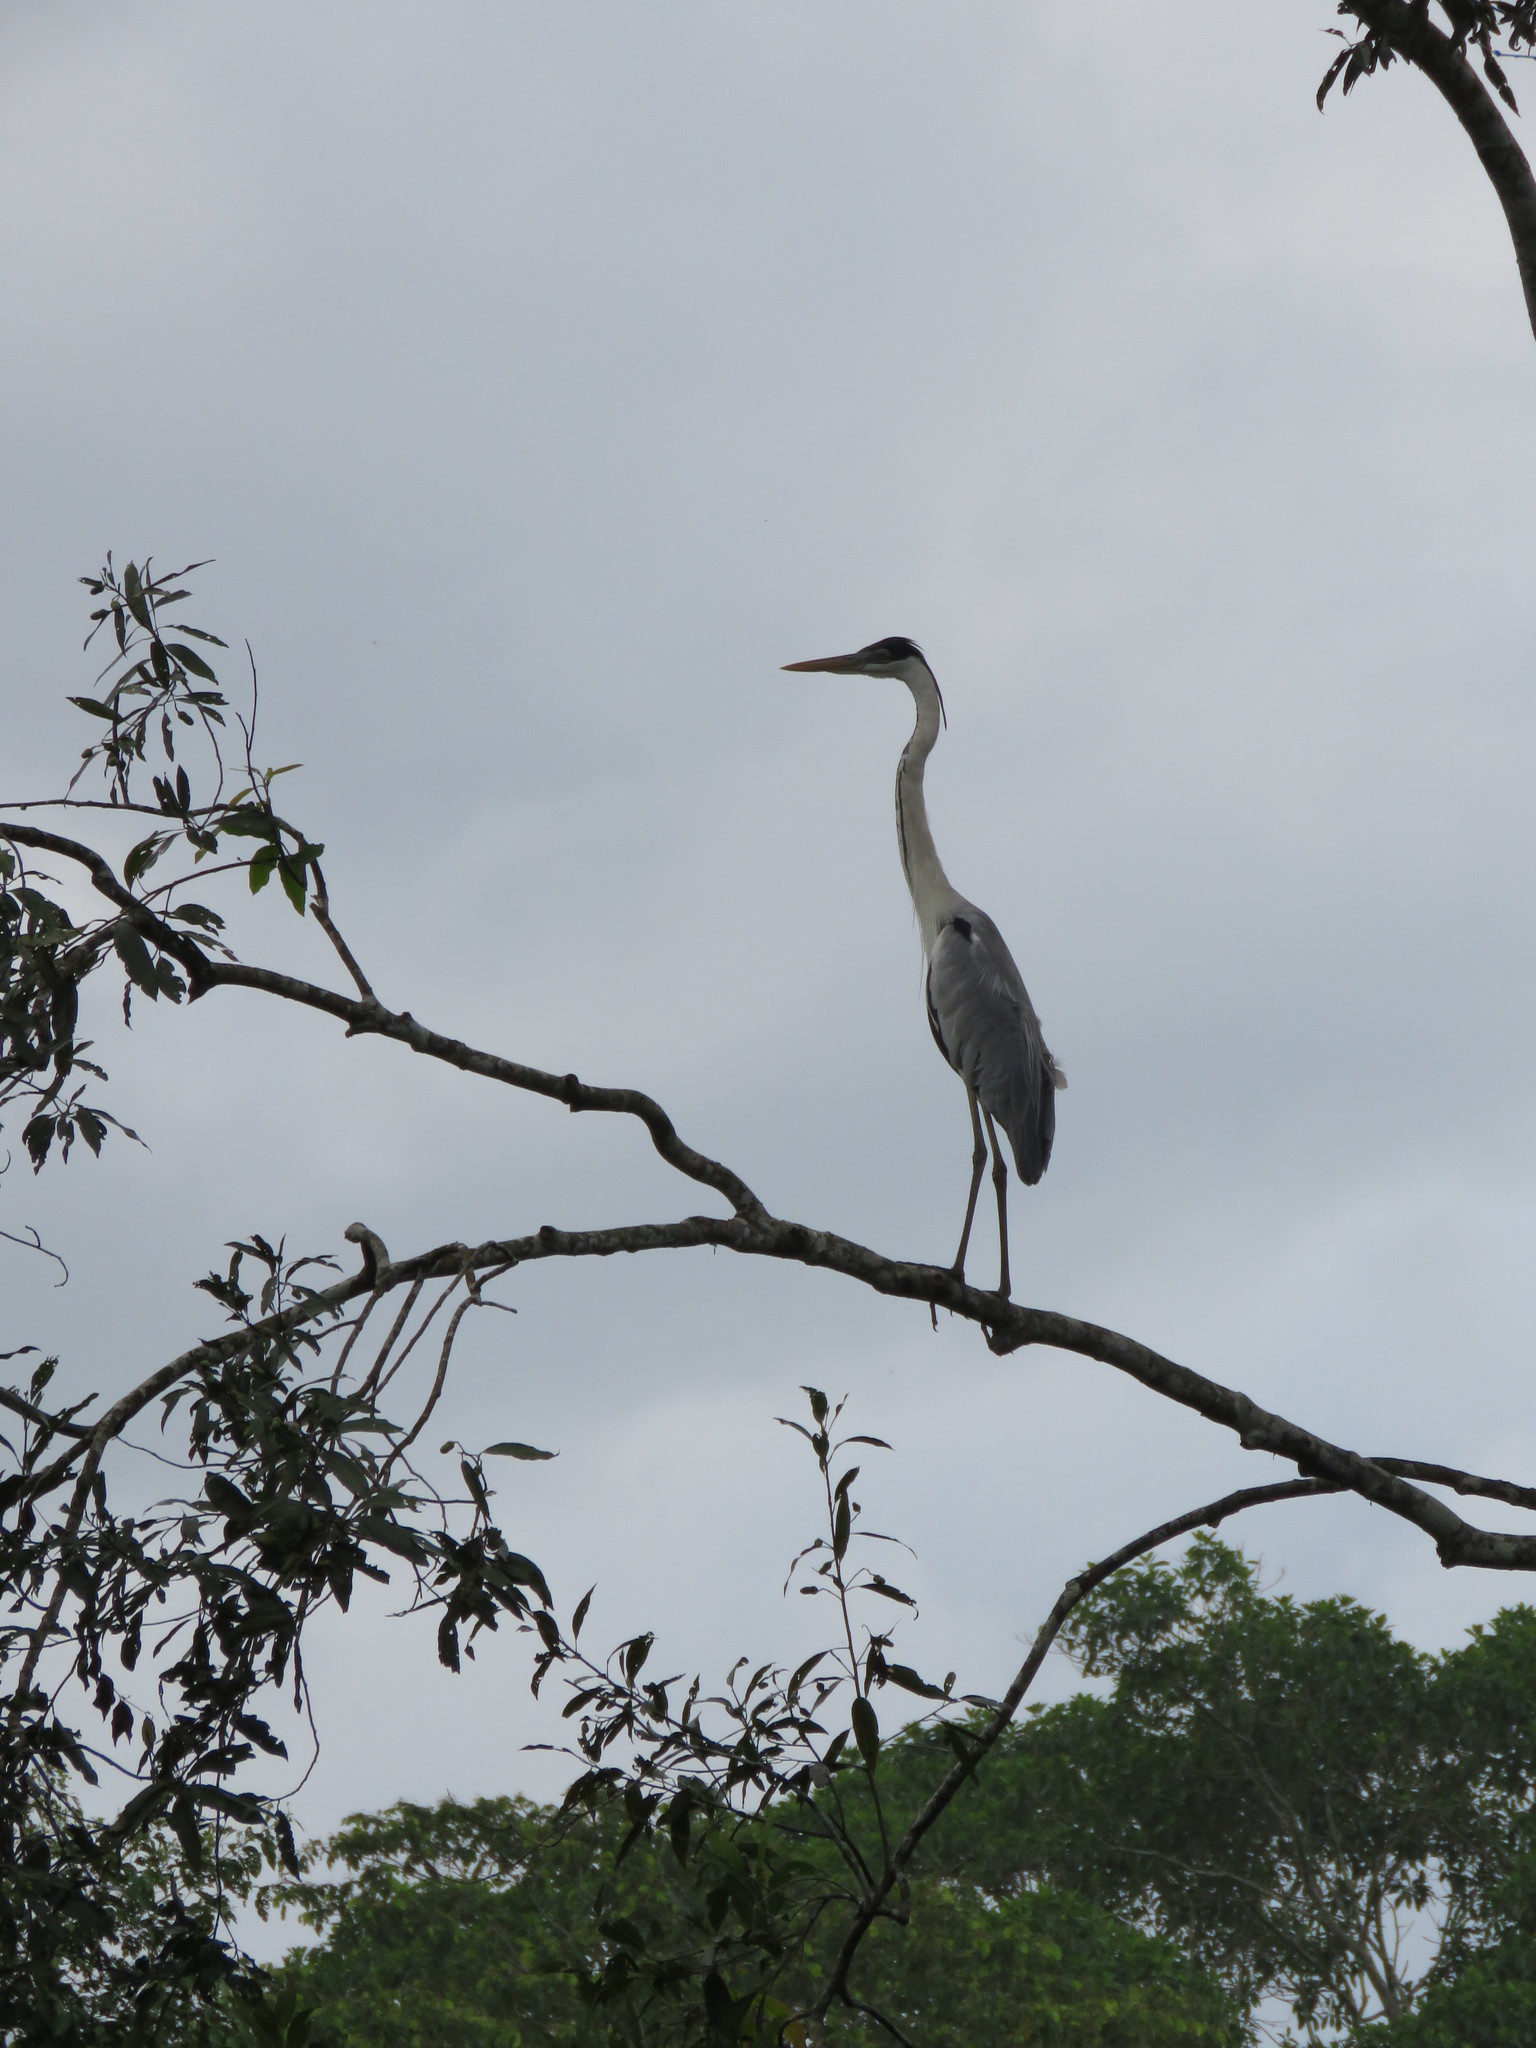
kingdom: Animalia
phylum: Chordata
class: Aves
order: Pelecaniformes
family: Ardeidae
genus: Ardea
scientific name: Ardea cocoi
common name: Cocoi heron
